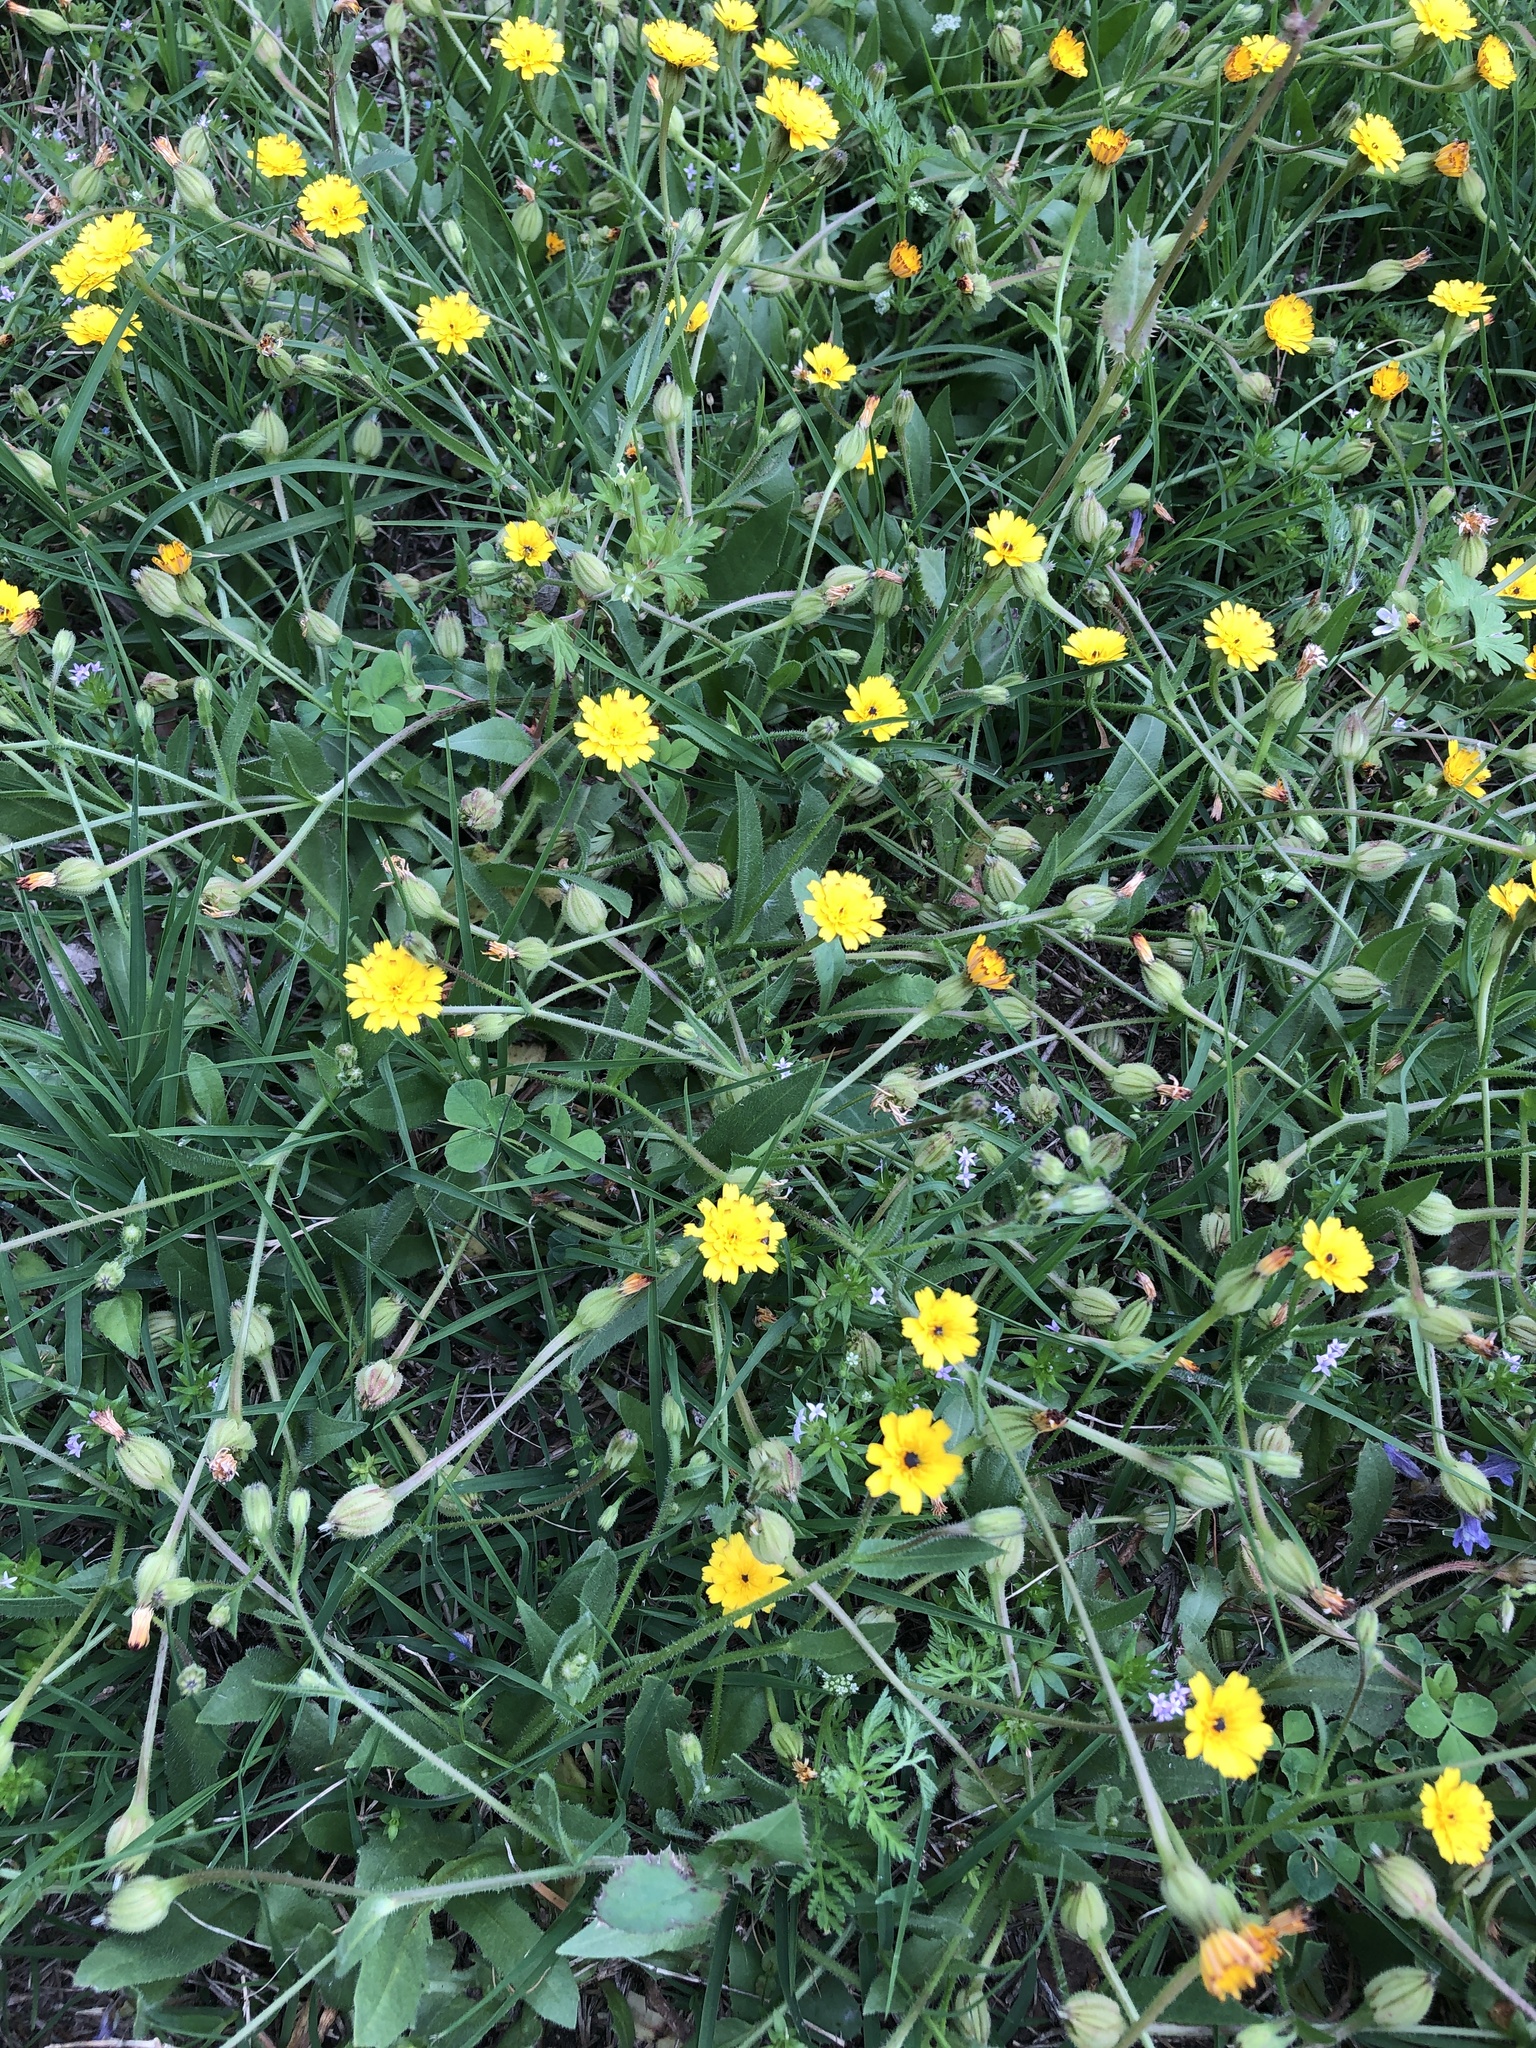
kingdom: Plantae
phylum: Tracheophyta
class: Magnoliopsida
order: Asterales
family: Asteraceae
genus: Hedypnois
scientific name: Hedypnois rhagadioloides
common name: Cretan weed
